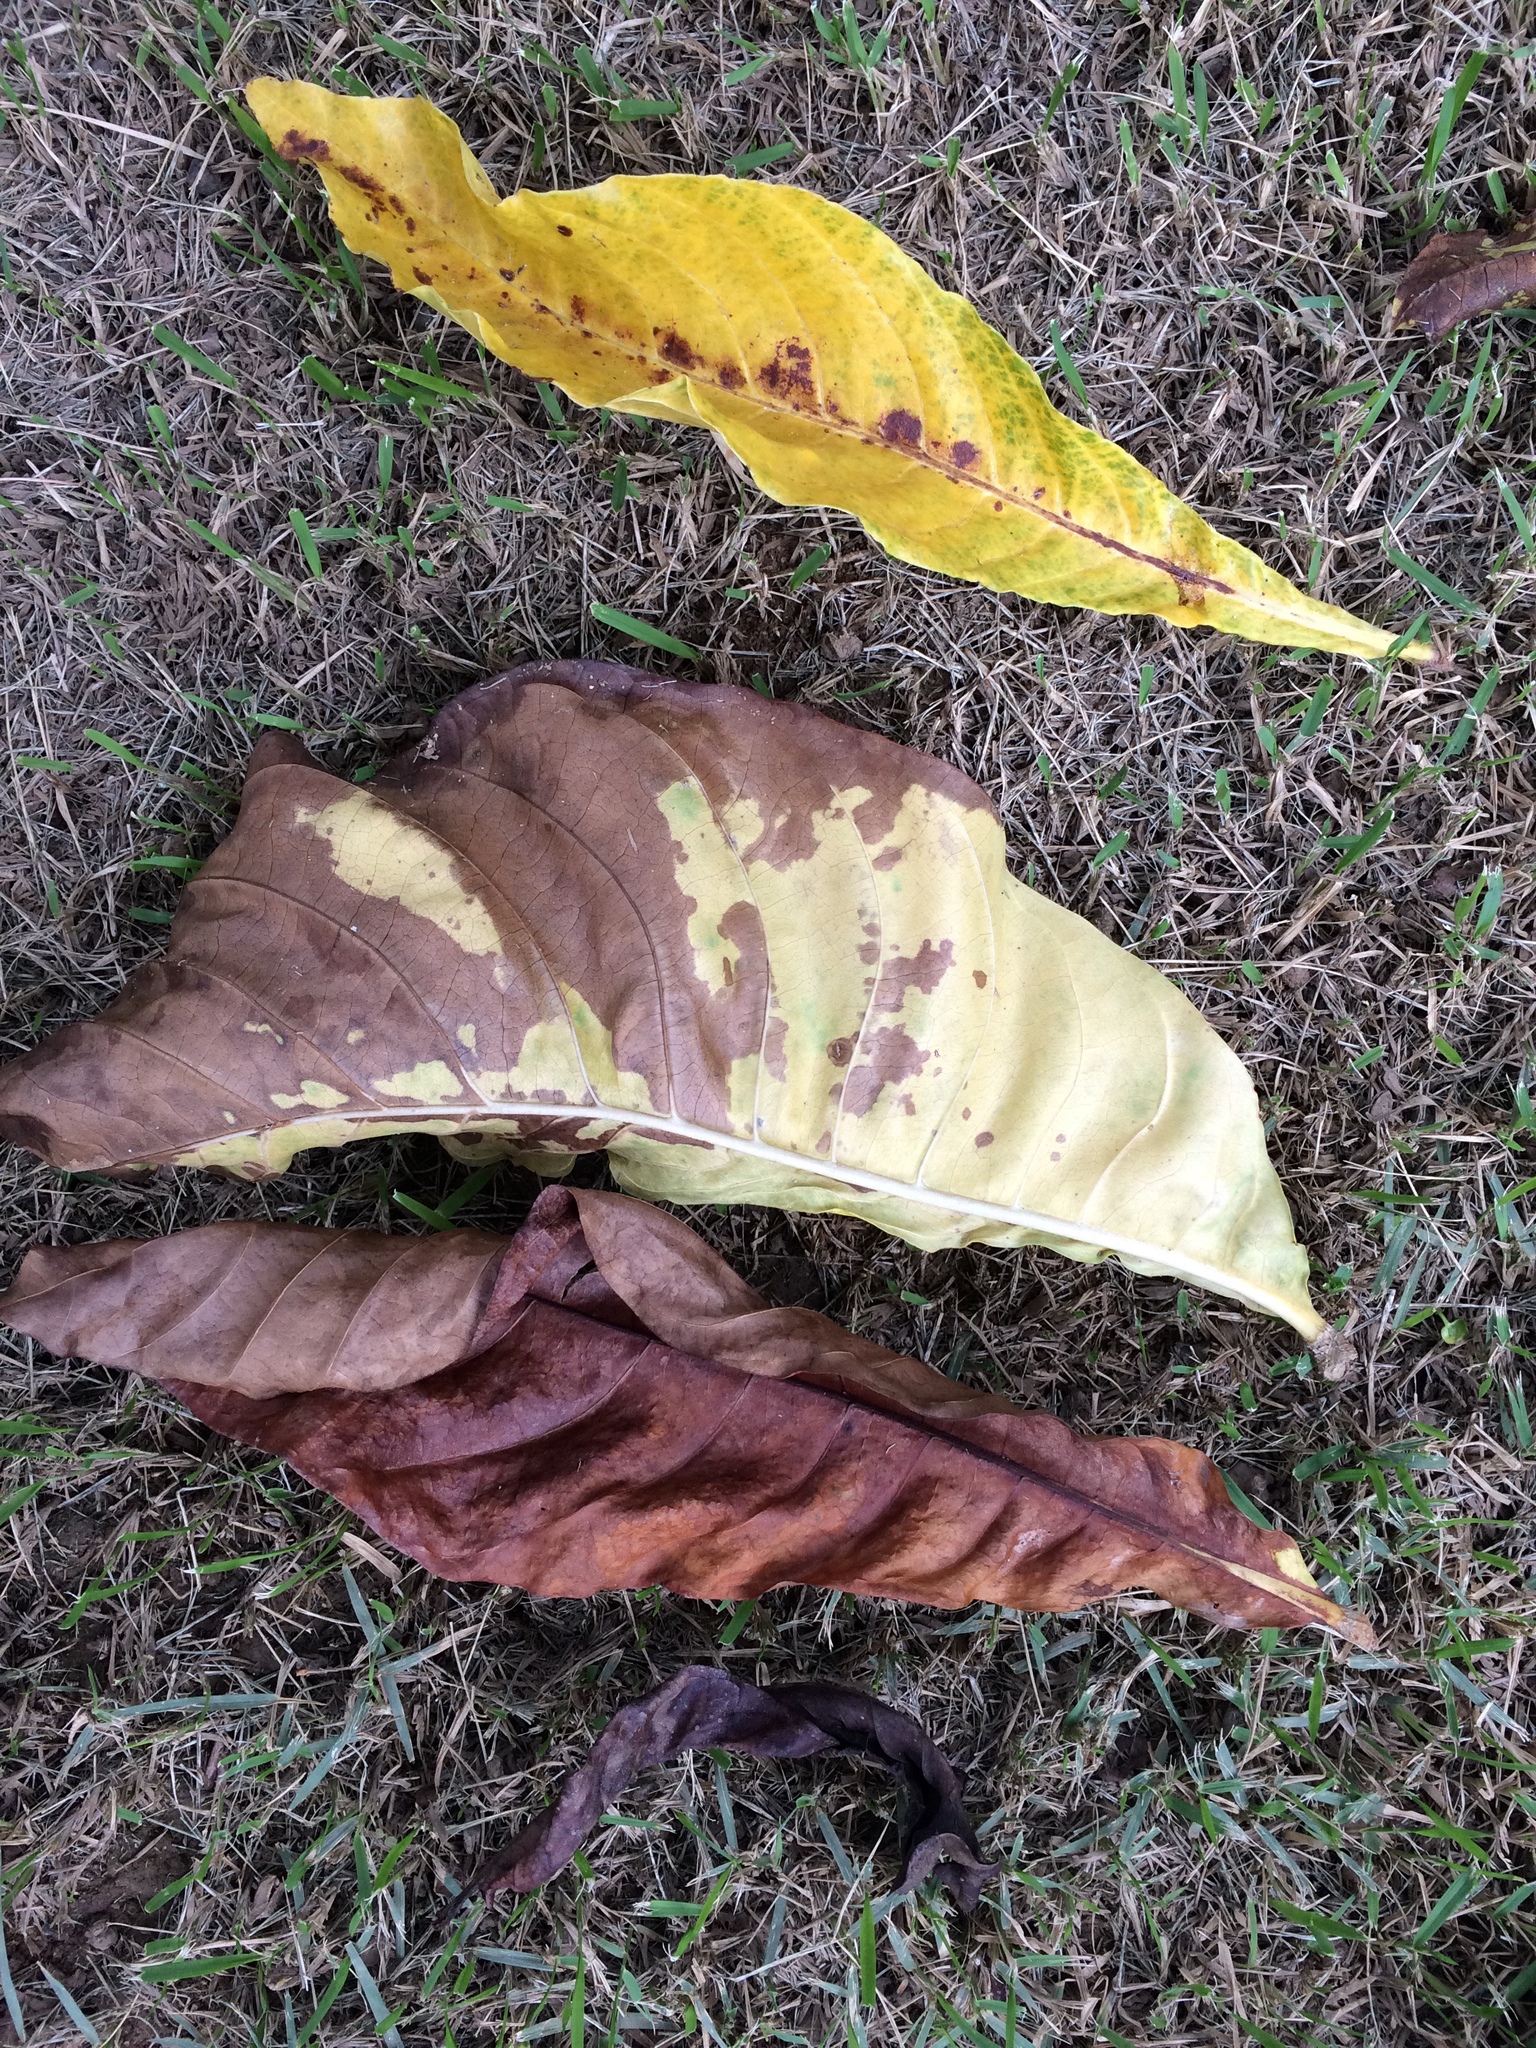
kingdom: Plantae
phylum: Tracheophyta
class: Magnoliopsida
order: Gentianales
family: Rubiaceae
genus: Genipa
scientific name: Genipa americana
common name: Genipap
